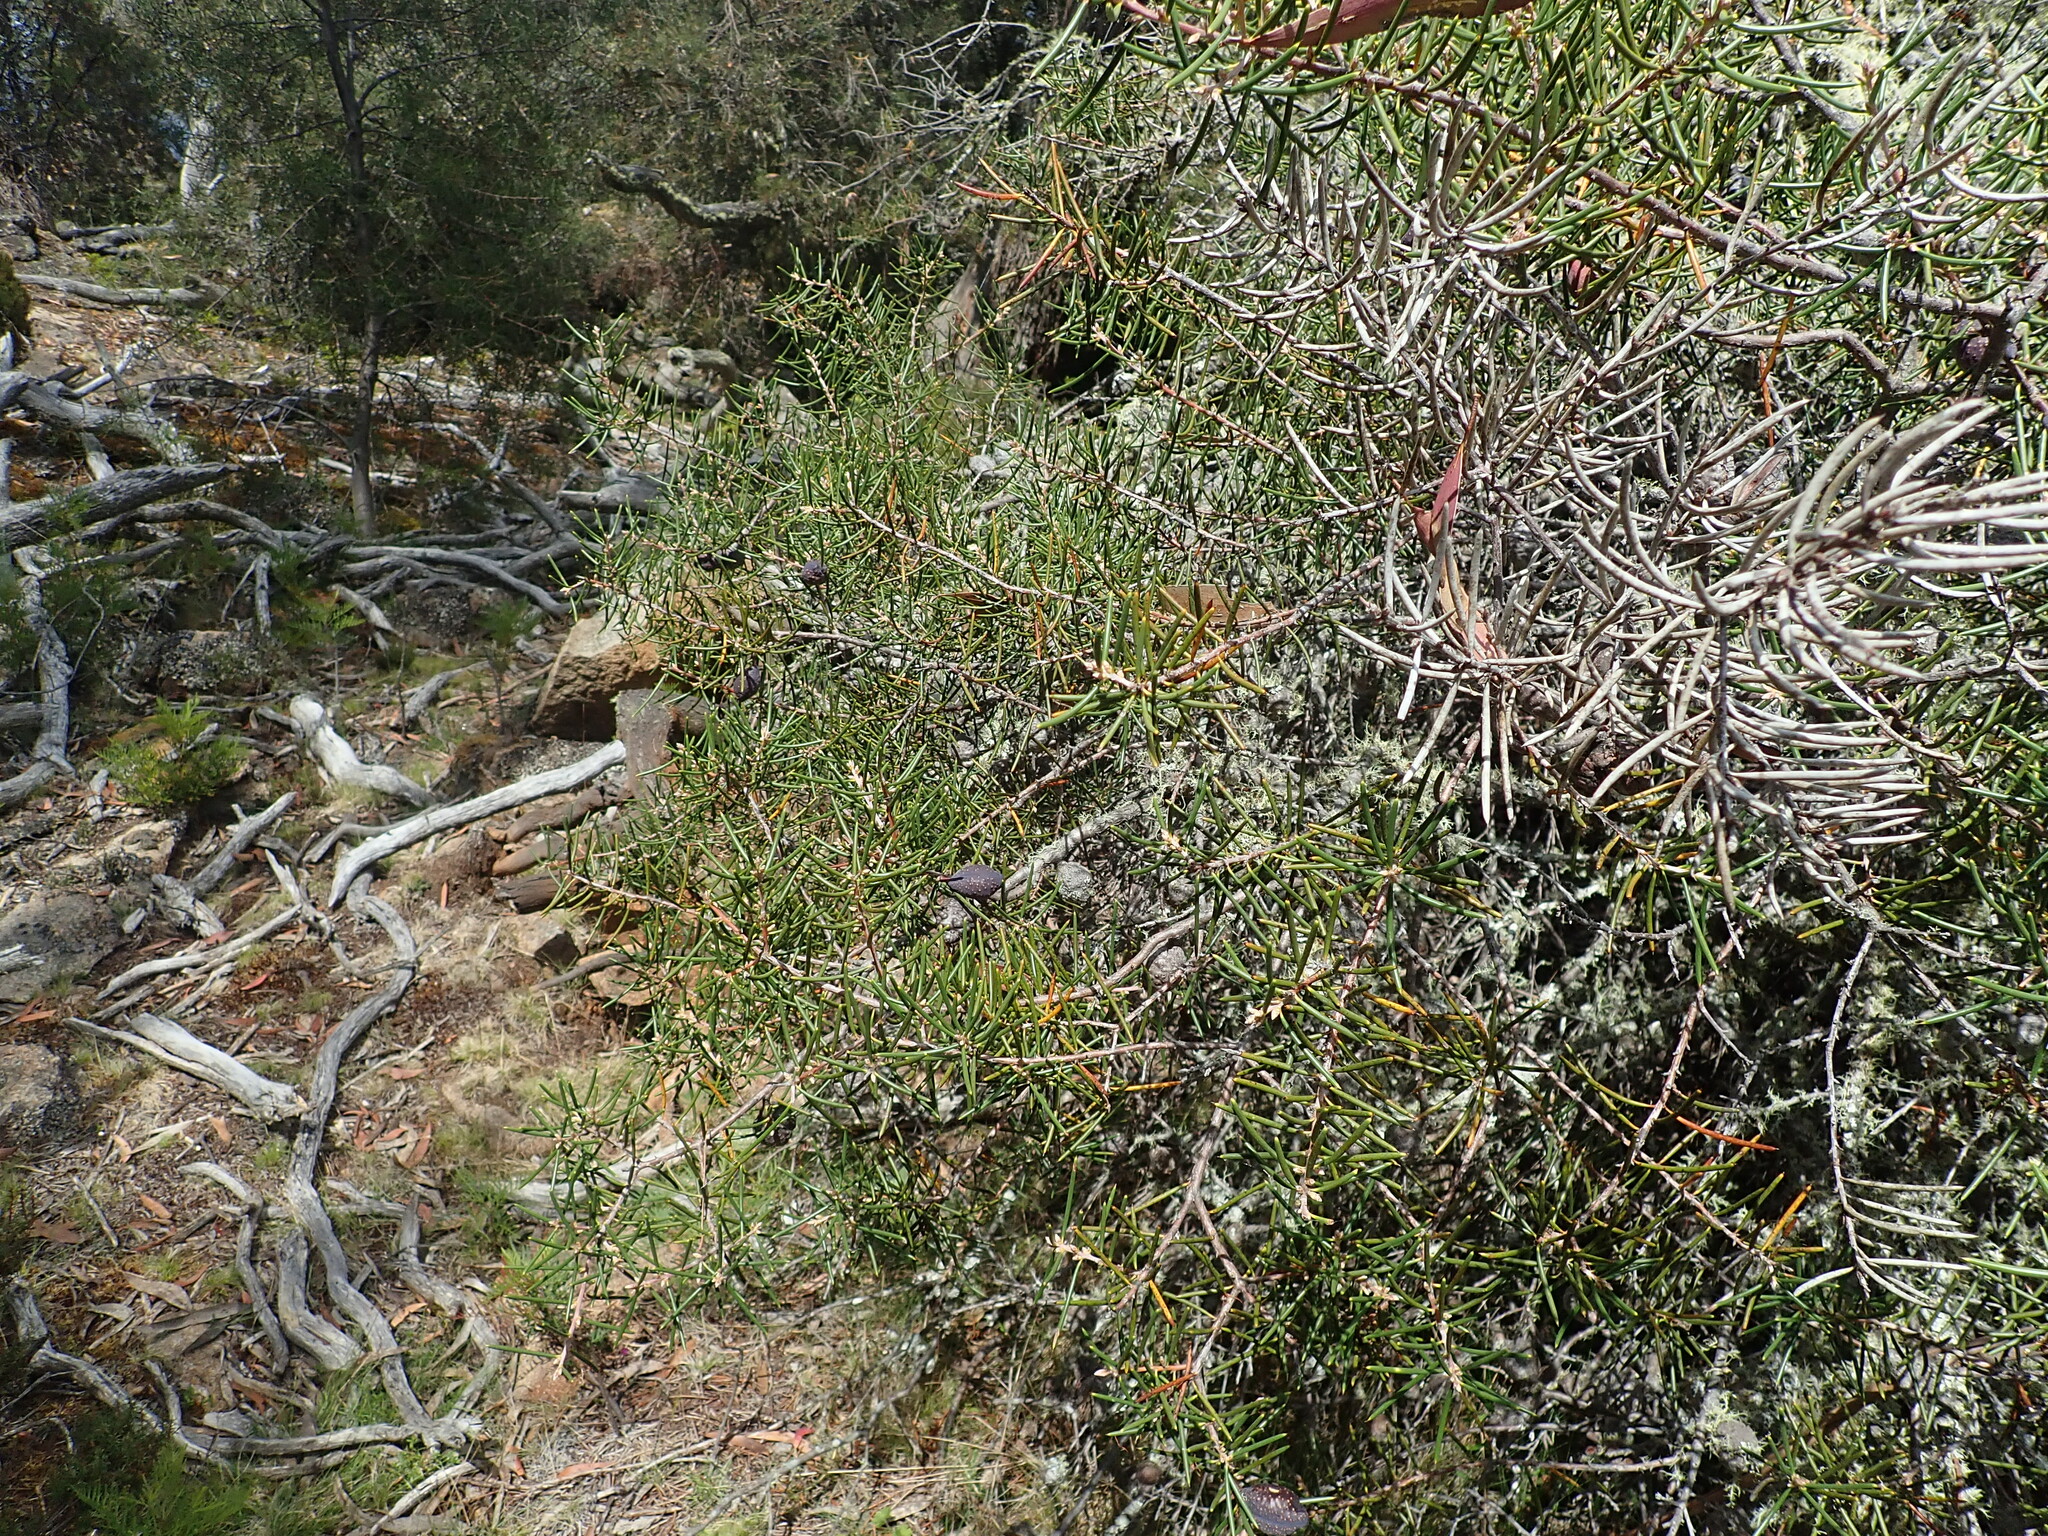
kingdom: Plantae
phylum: Tracheophyta
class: Magnoliopsida
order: Proteales
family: Proteaceae
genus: Hakea
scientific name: Hakea lissosperma
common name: Mountain needlewood
